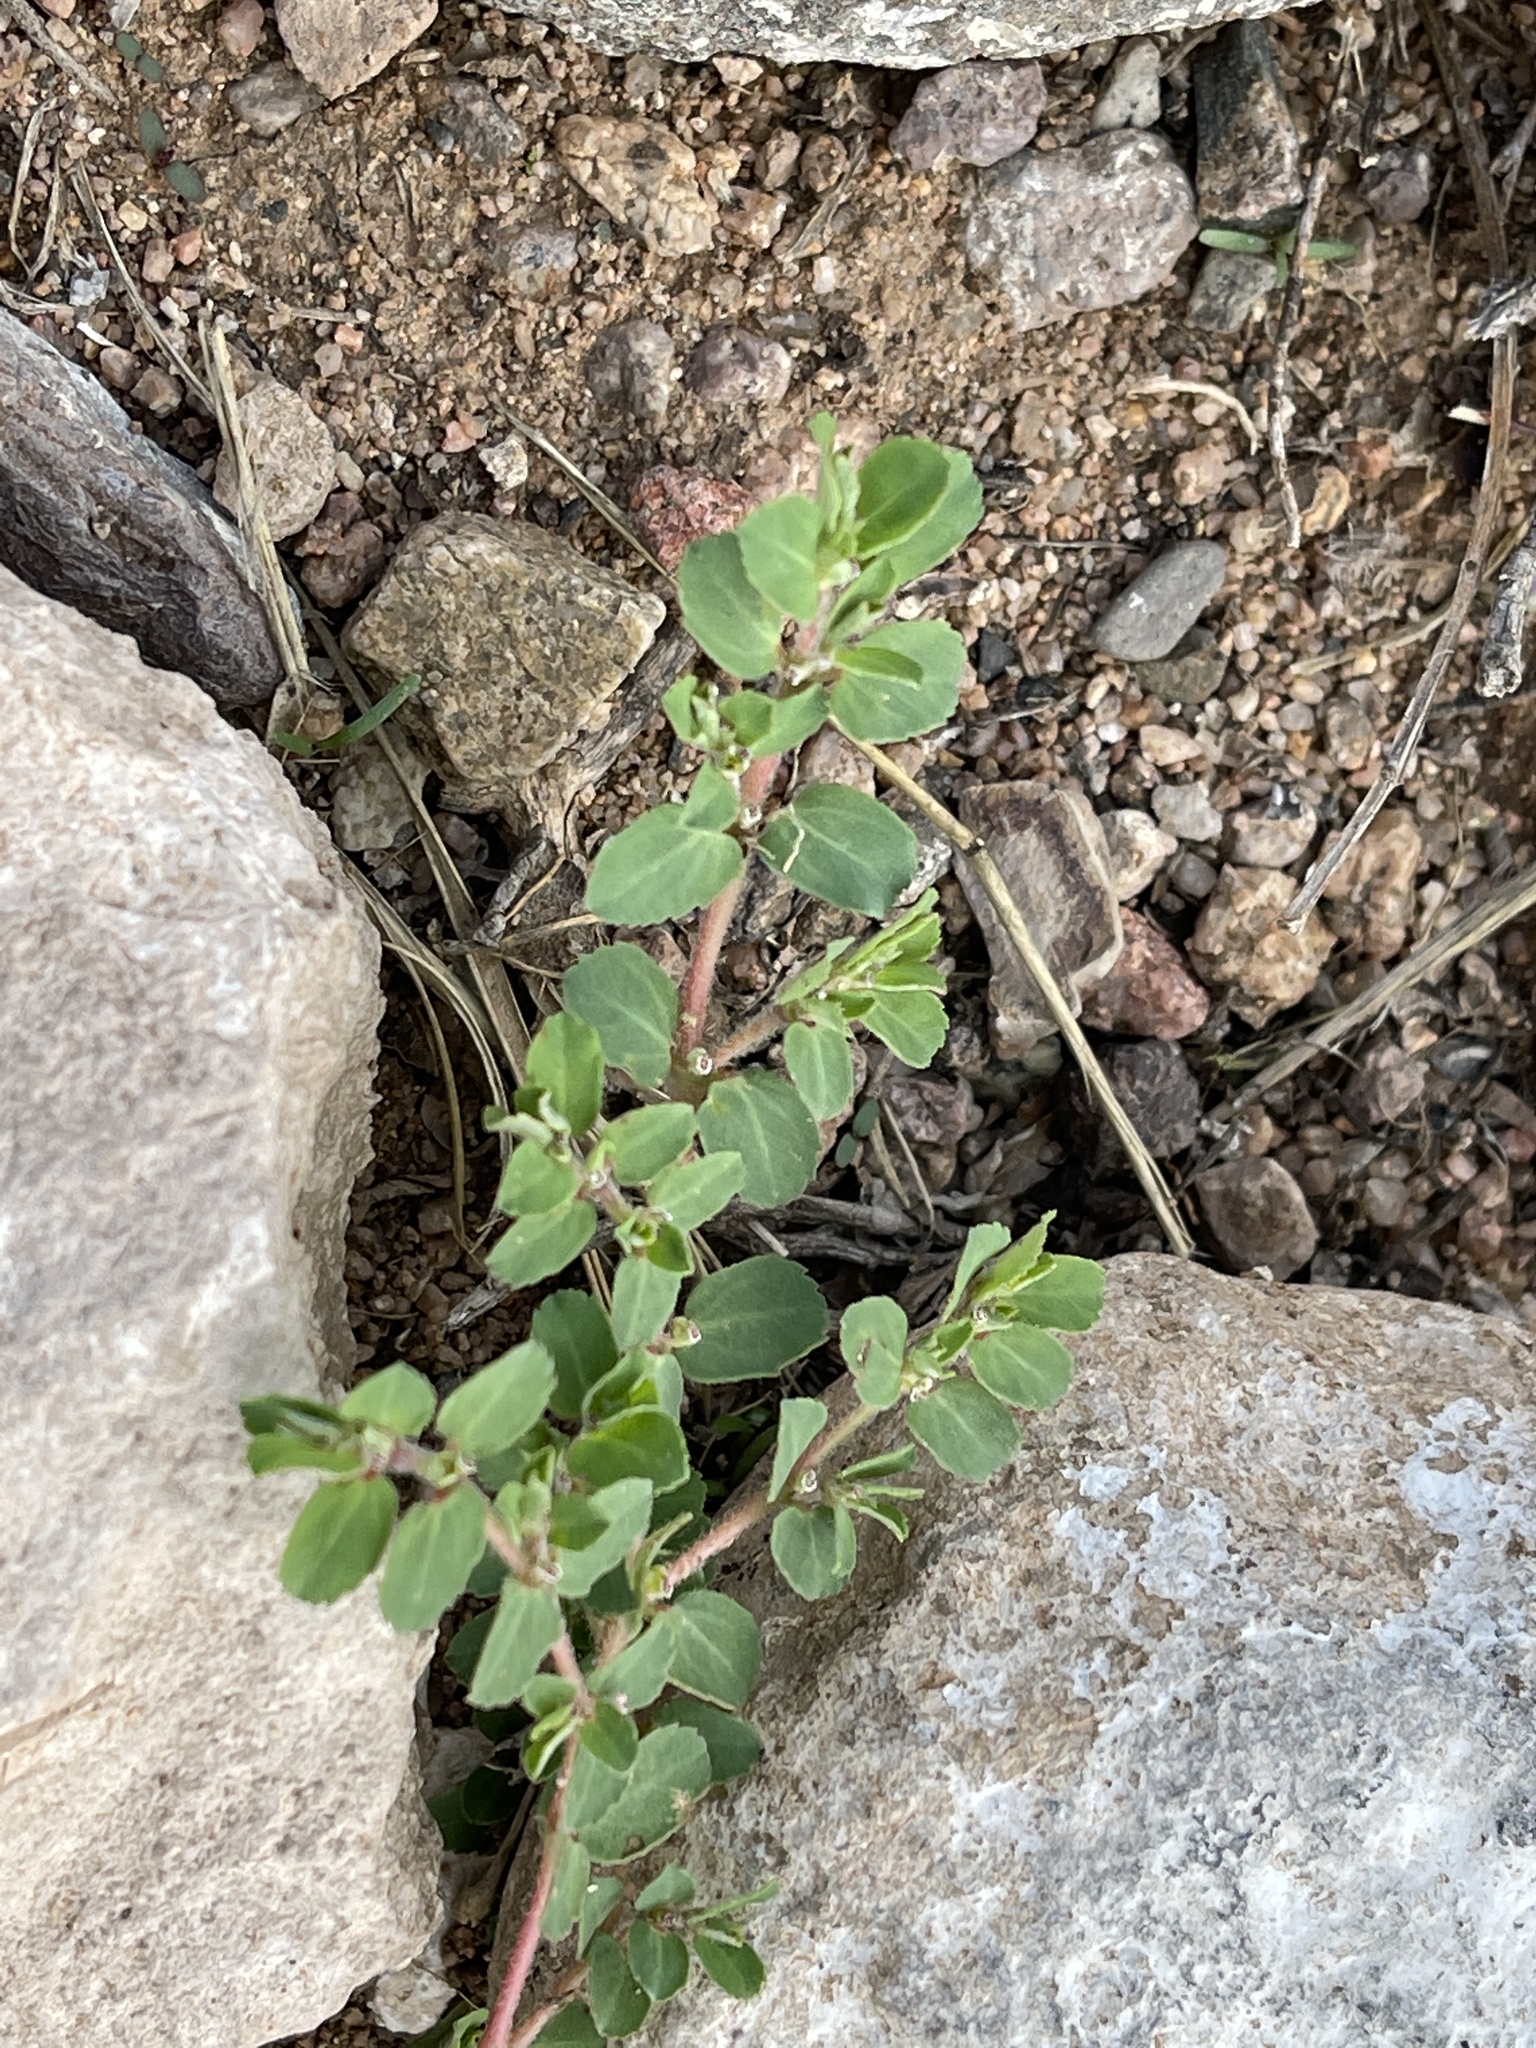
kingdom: Plantae
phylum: Tracheophyta
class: Magnoliopsida
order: Malpighiales
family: Euphorbiaceae
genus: Euphorbia
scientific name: Euphorbia stictospora
